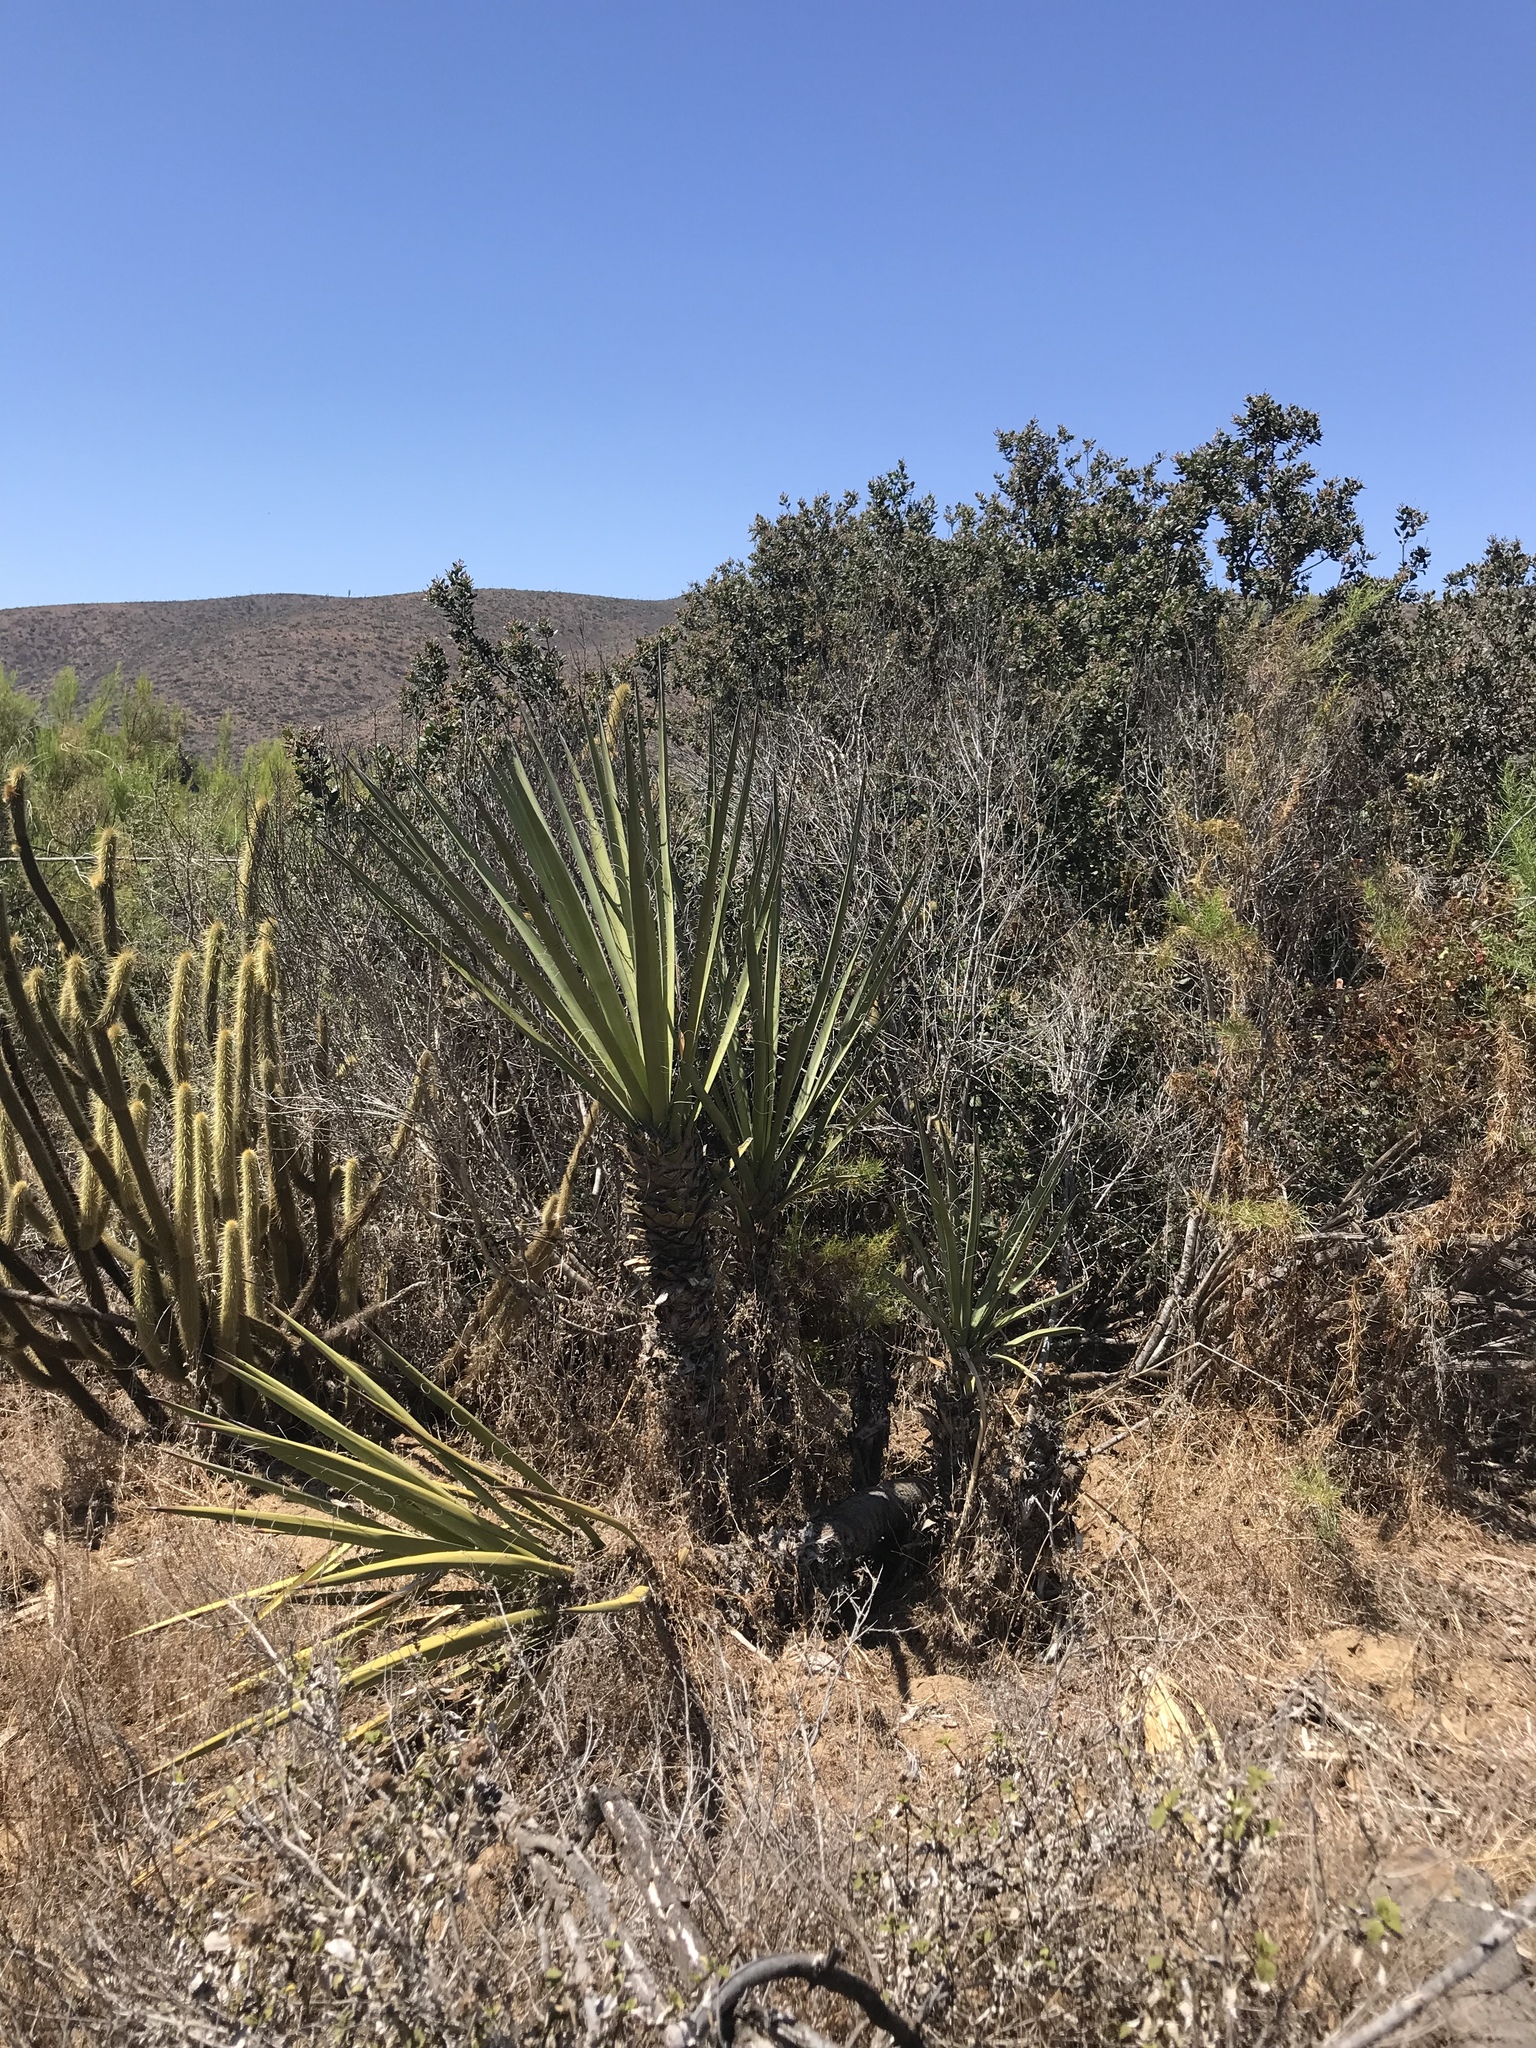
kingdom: Plantae
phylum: Tracheophyta
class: Liliopsida
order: Asparagales
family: Asparagaceae
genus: Yucca
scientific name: Yucca schidigera
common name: Mojave yucca
